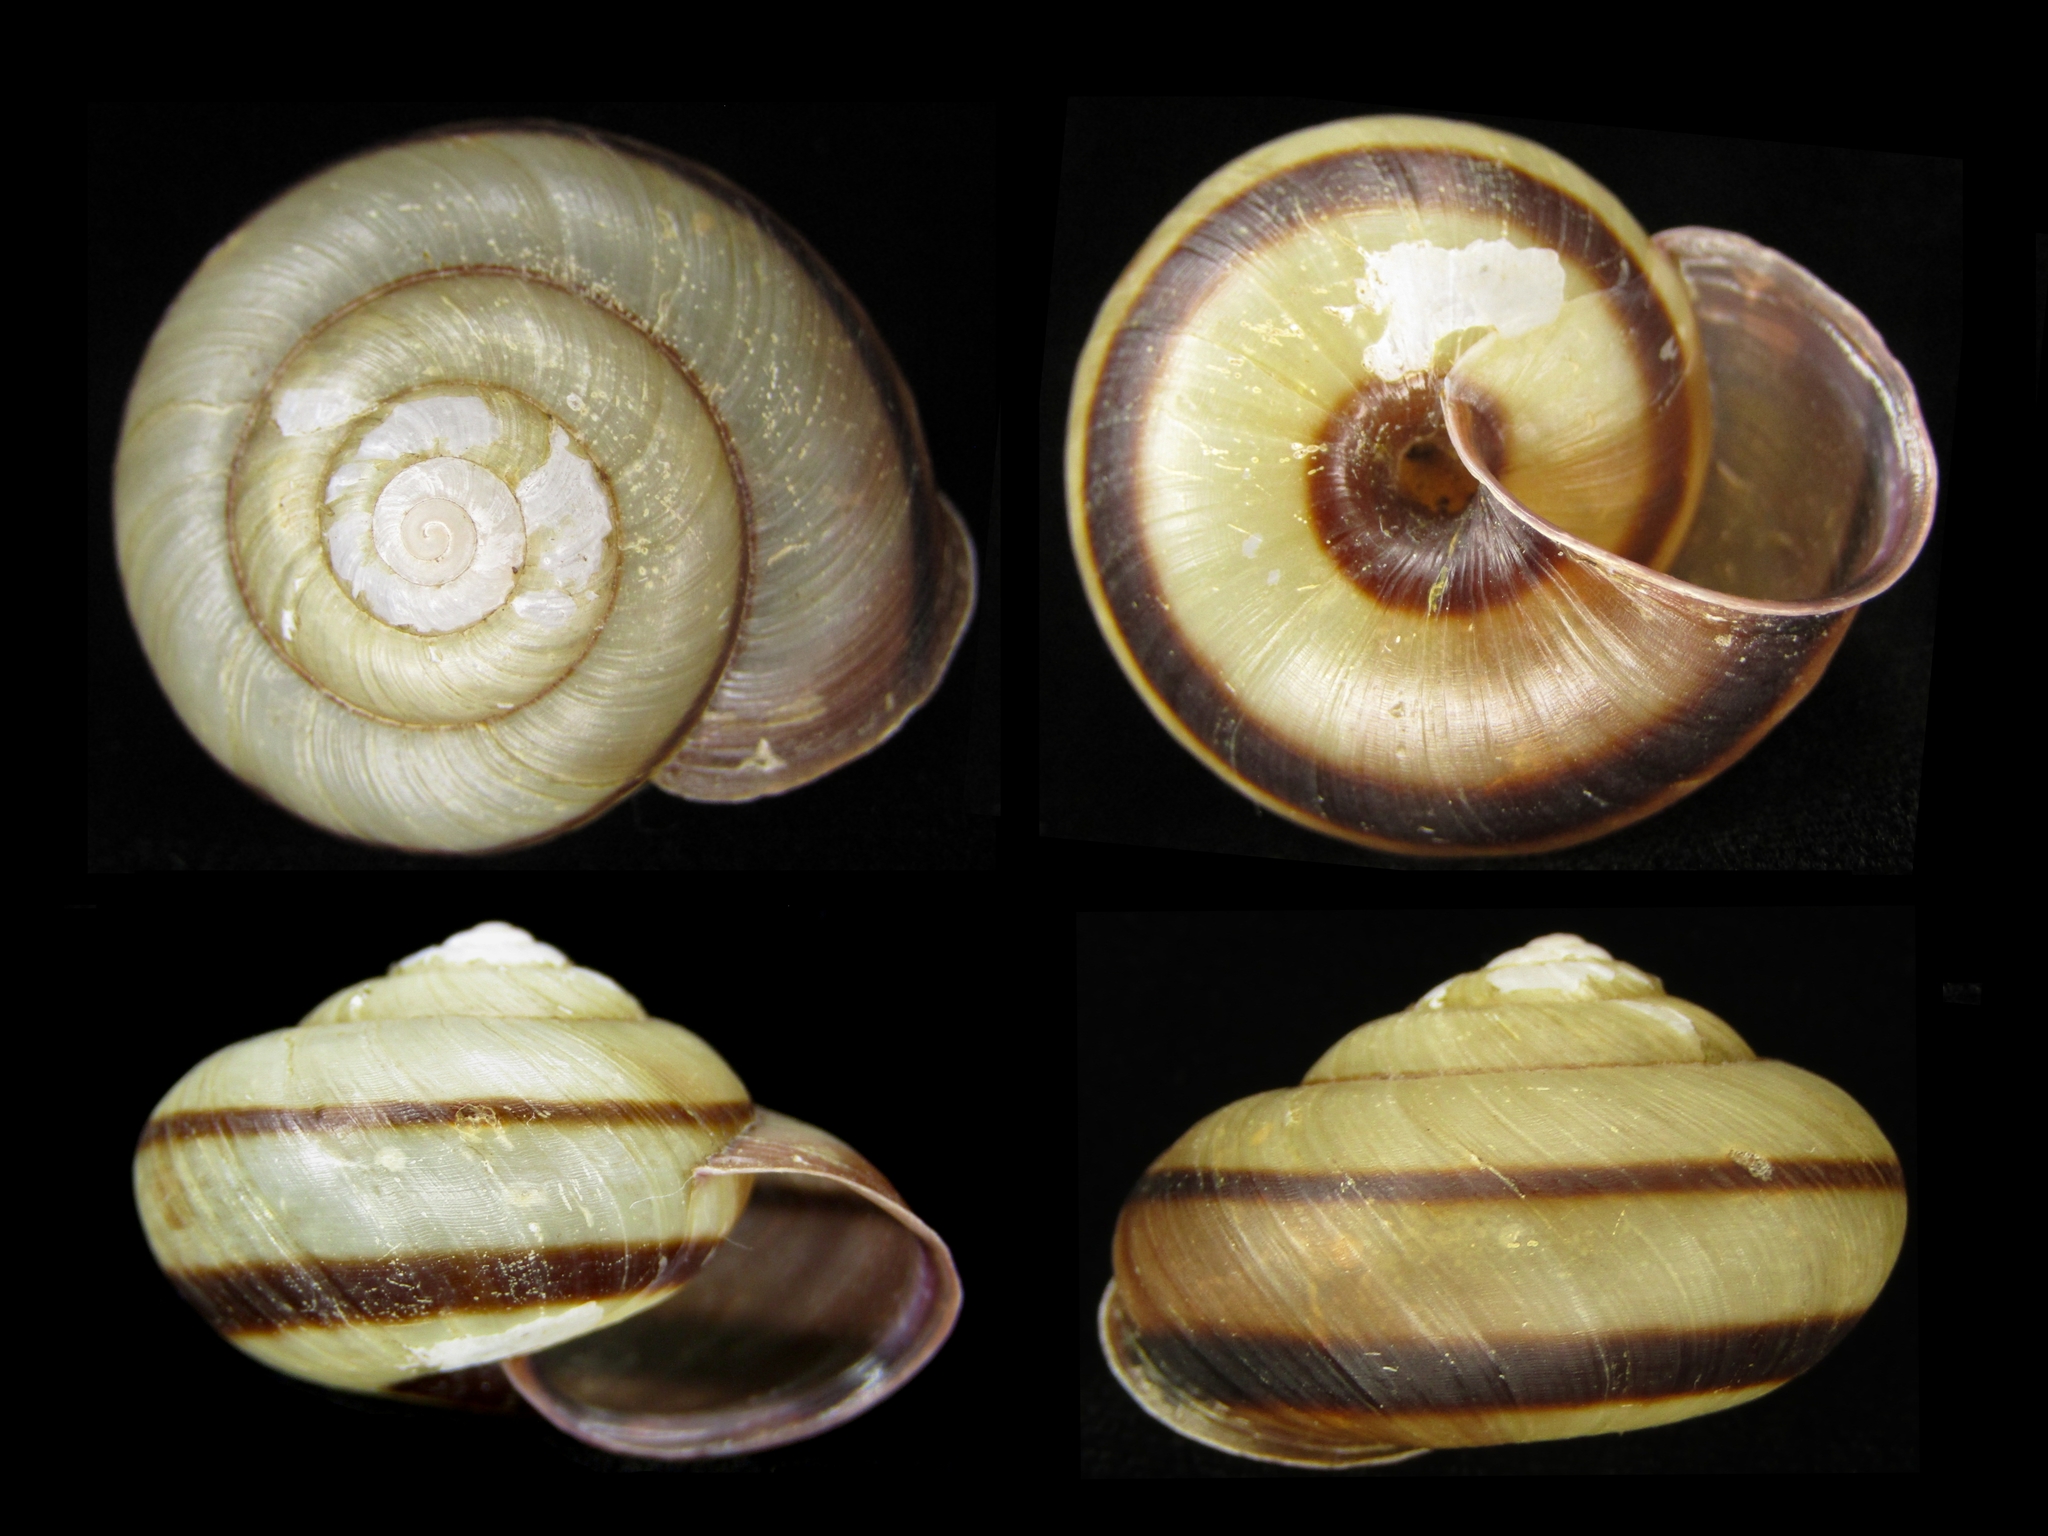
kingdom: Animalia
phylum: Mollusca
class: Gastropoda
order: Stylommatophora
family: Camaenidae
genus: Euhadra
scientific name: Euhadra amaliae
